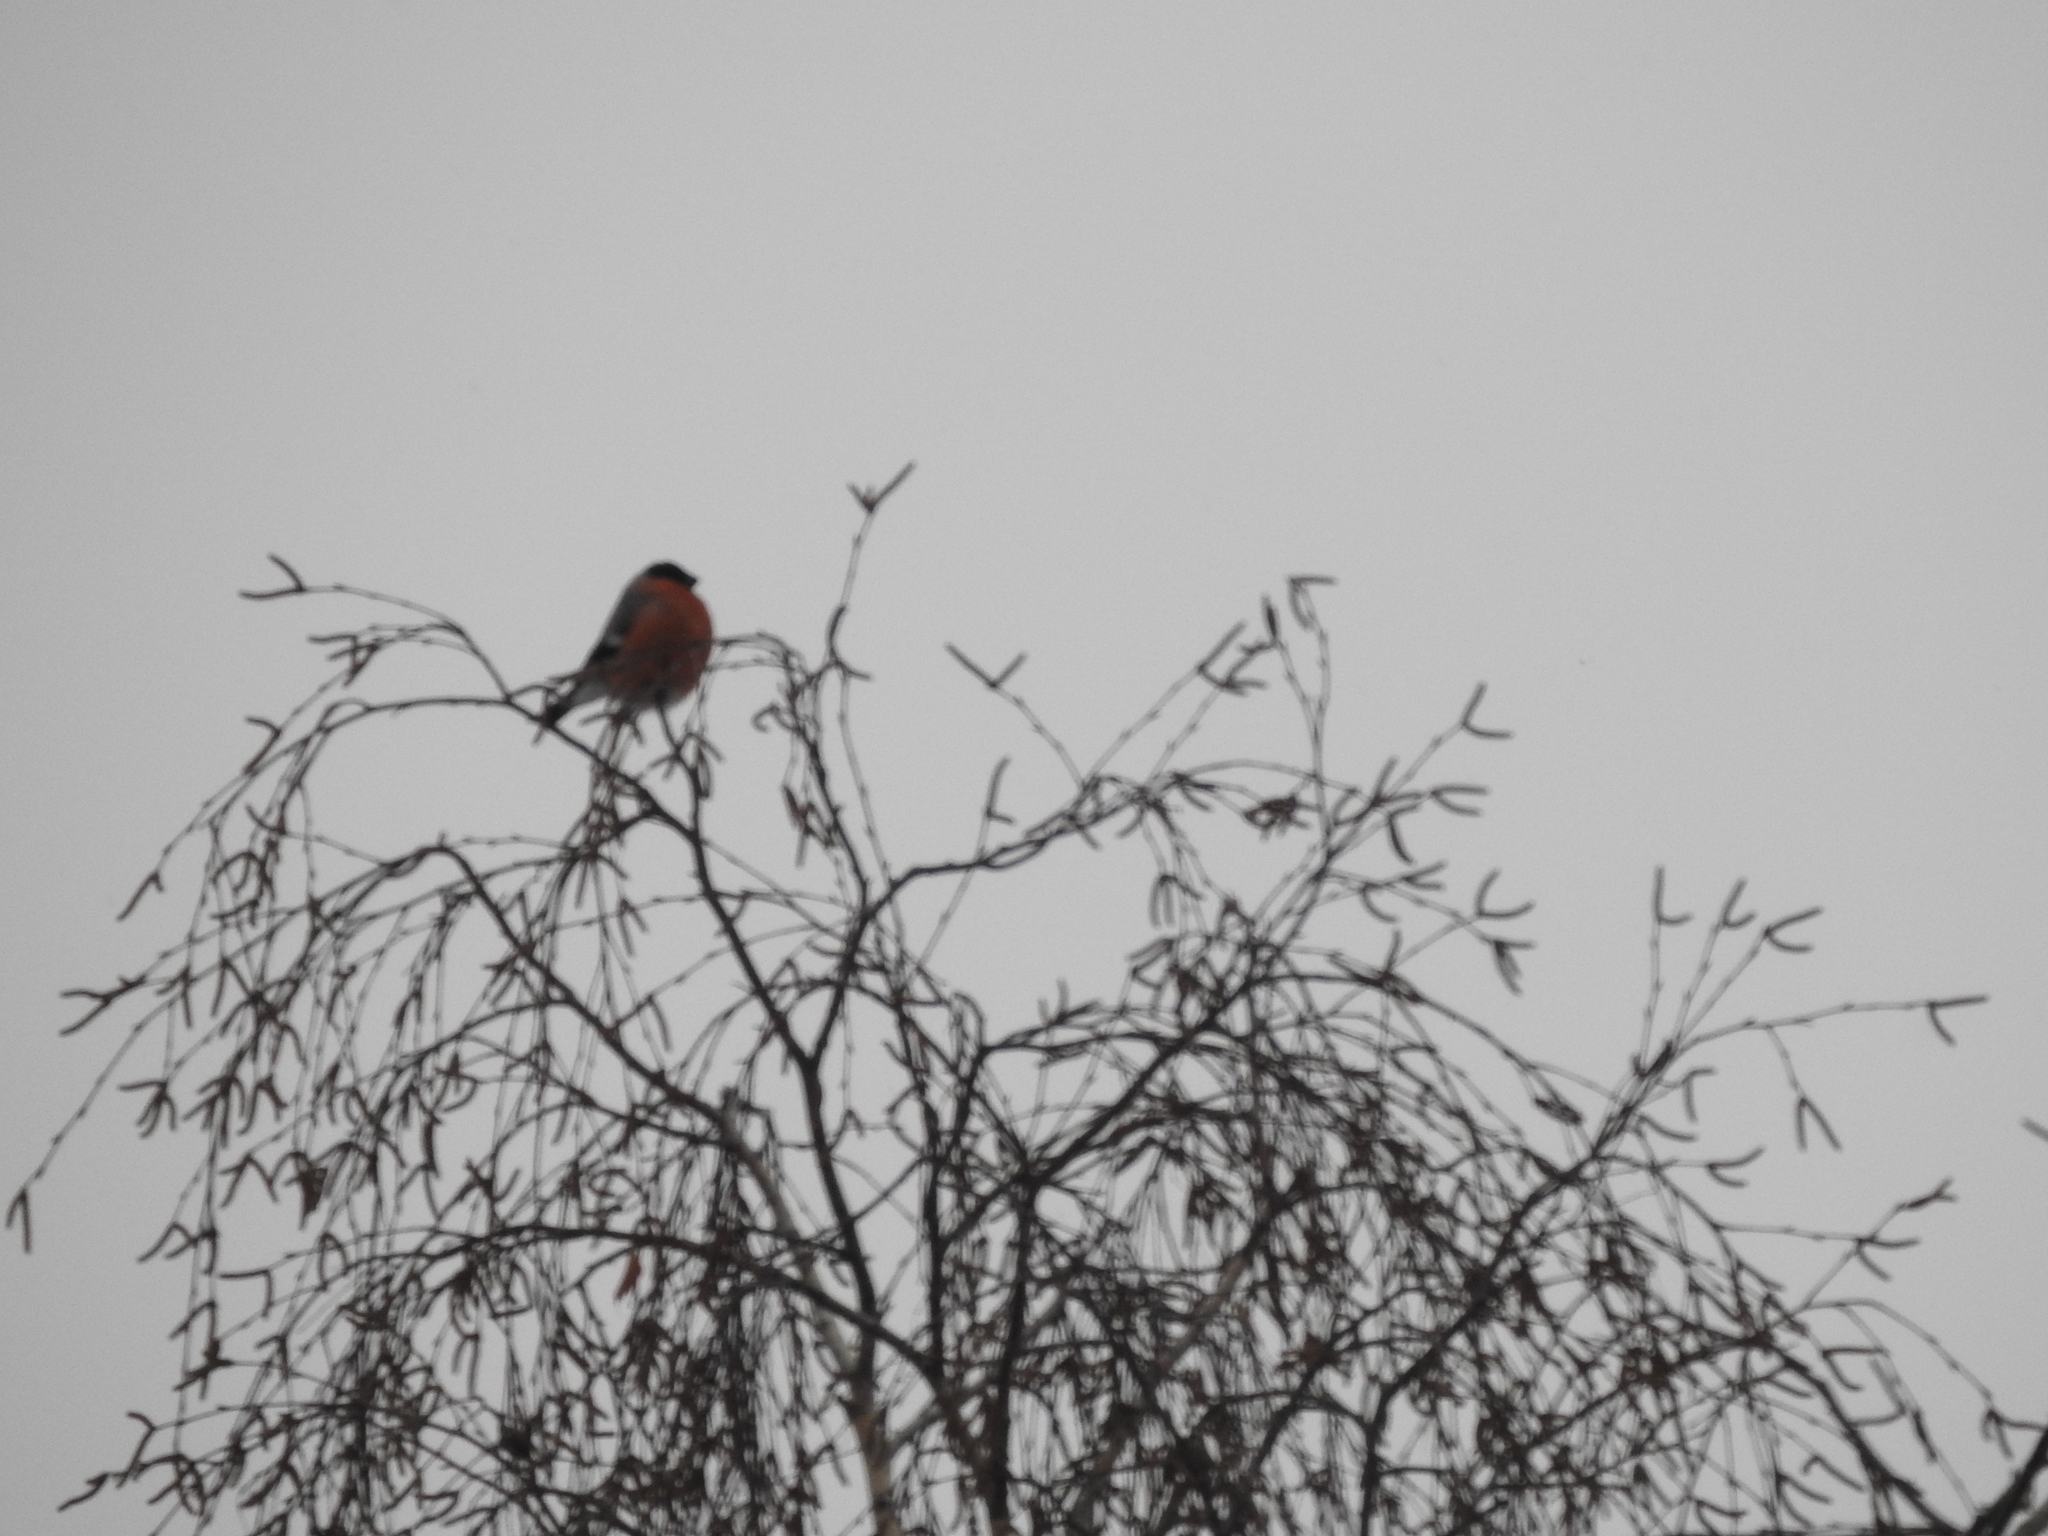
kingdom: Animalia
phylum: Chordata
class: Aves
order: Passeriformes
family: Fringillidae
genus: Pyrrhula
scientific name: Pyrrhula pyrrhula
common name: Eurasian bullfinch
